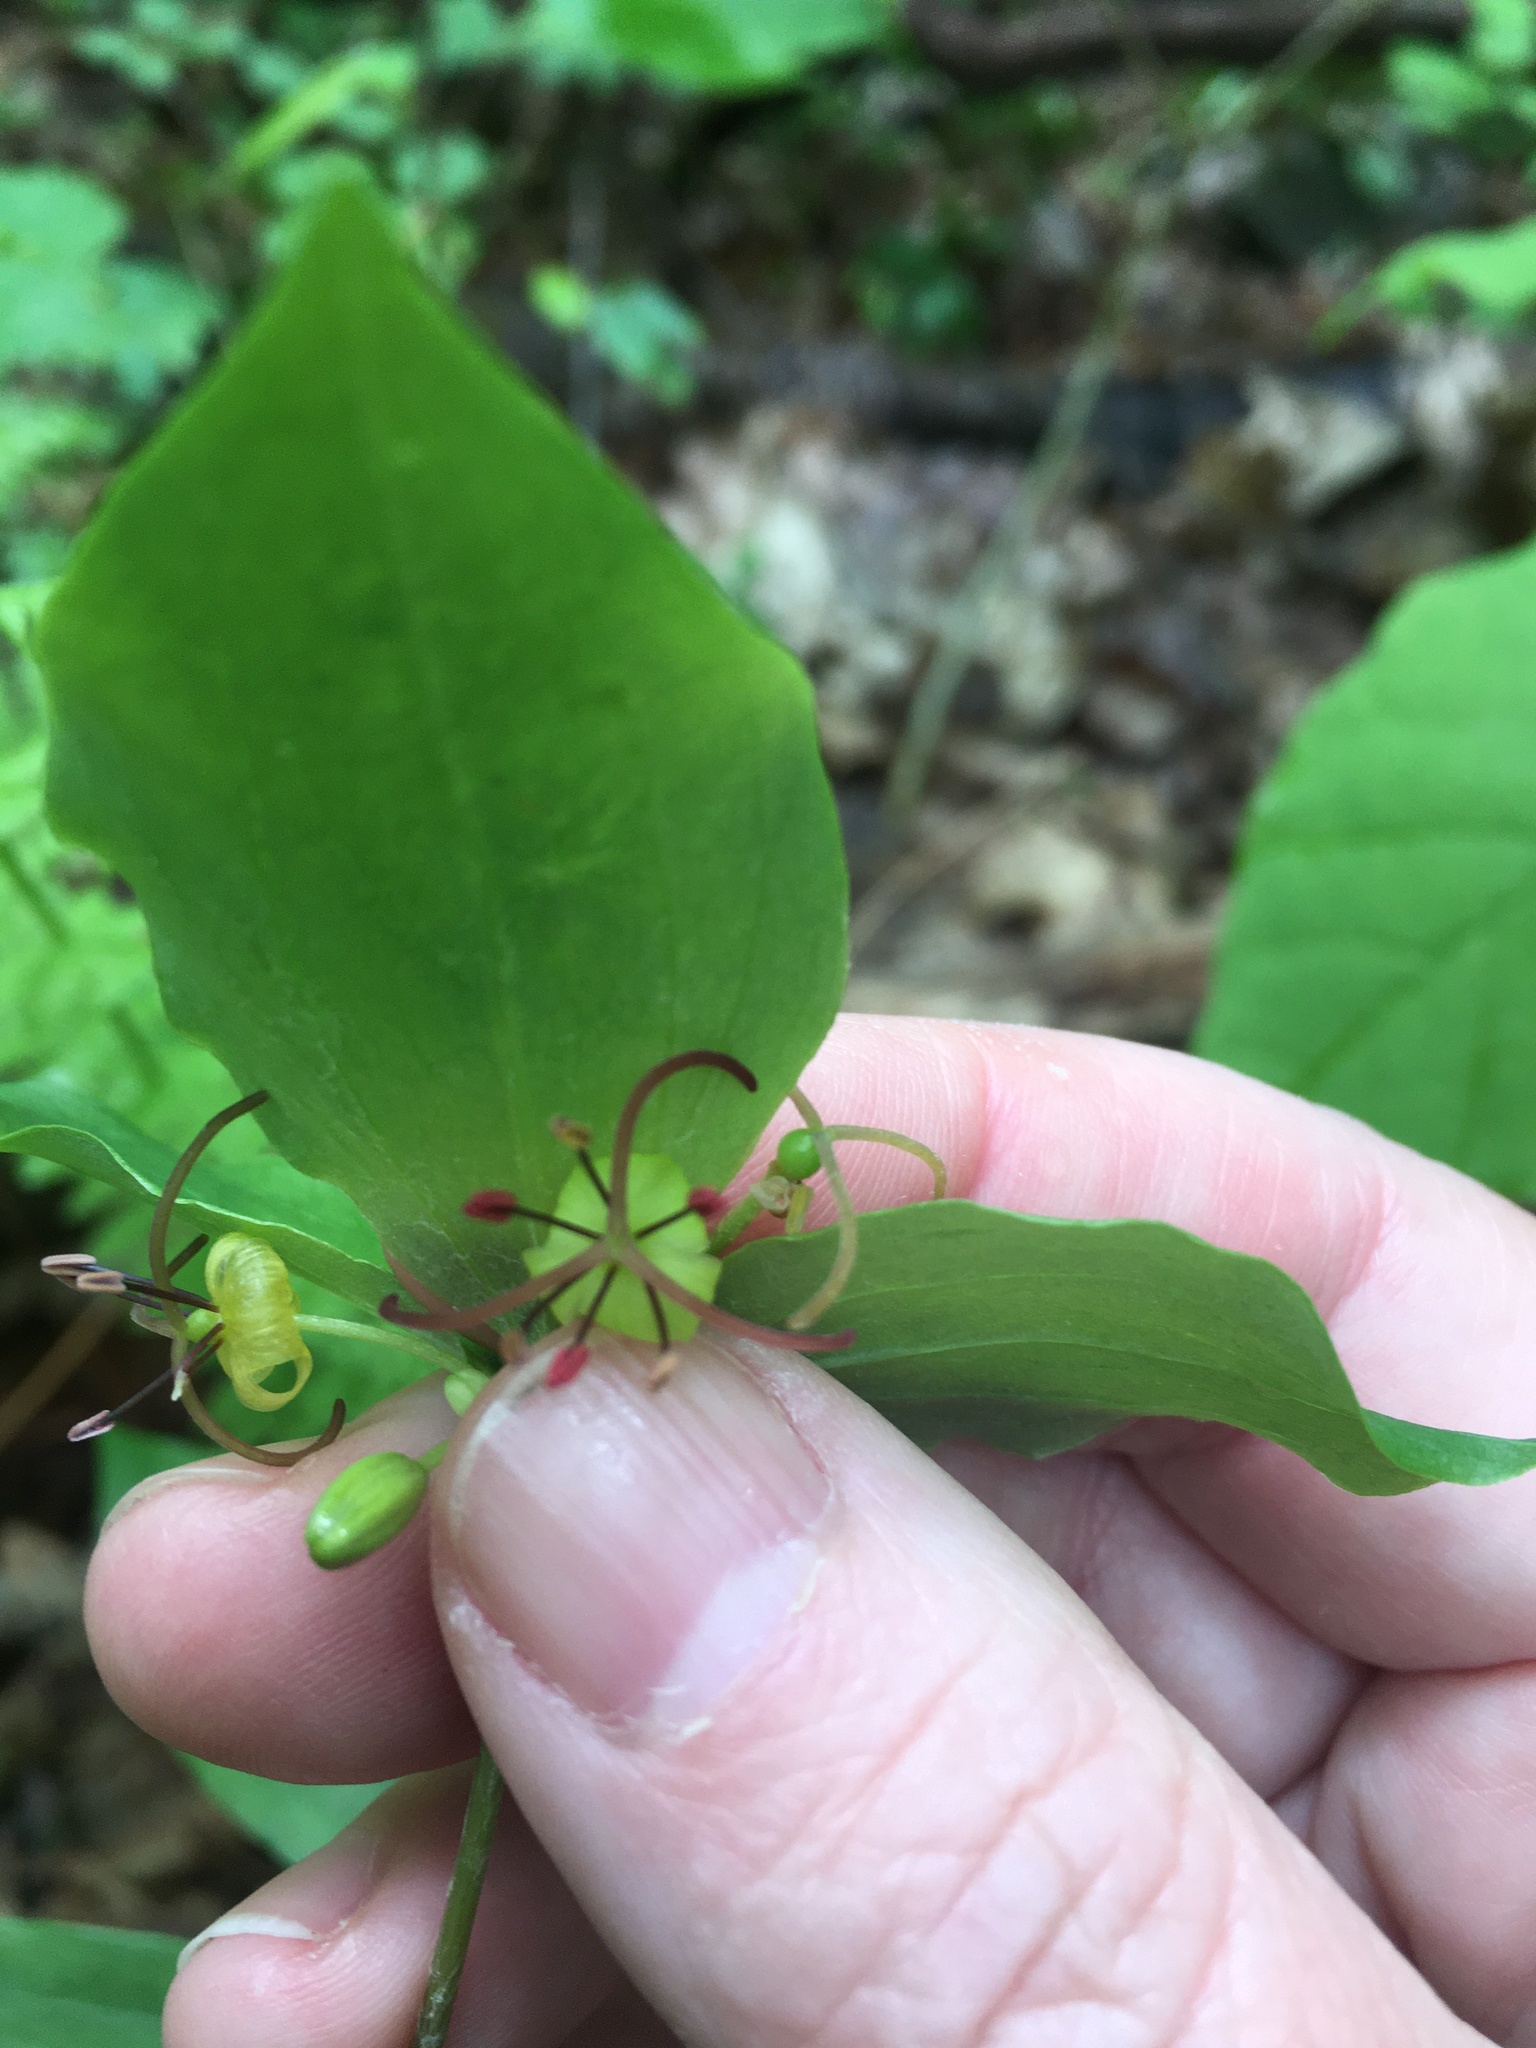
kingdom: Plantae
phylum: Tracheophyta
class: Liliopsida
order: Liliales
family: Liliaceae
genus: Medeola
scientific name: Medeola virginiana
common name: Indian cucumber-root
